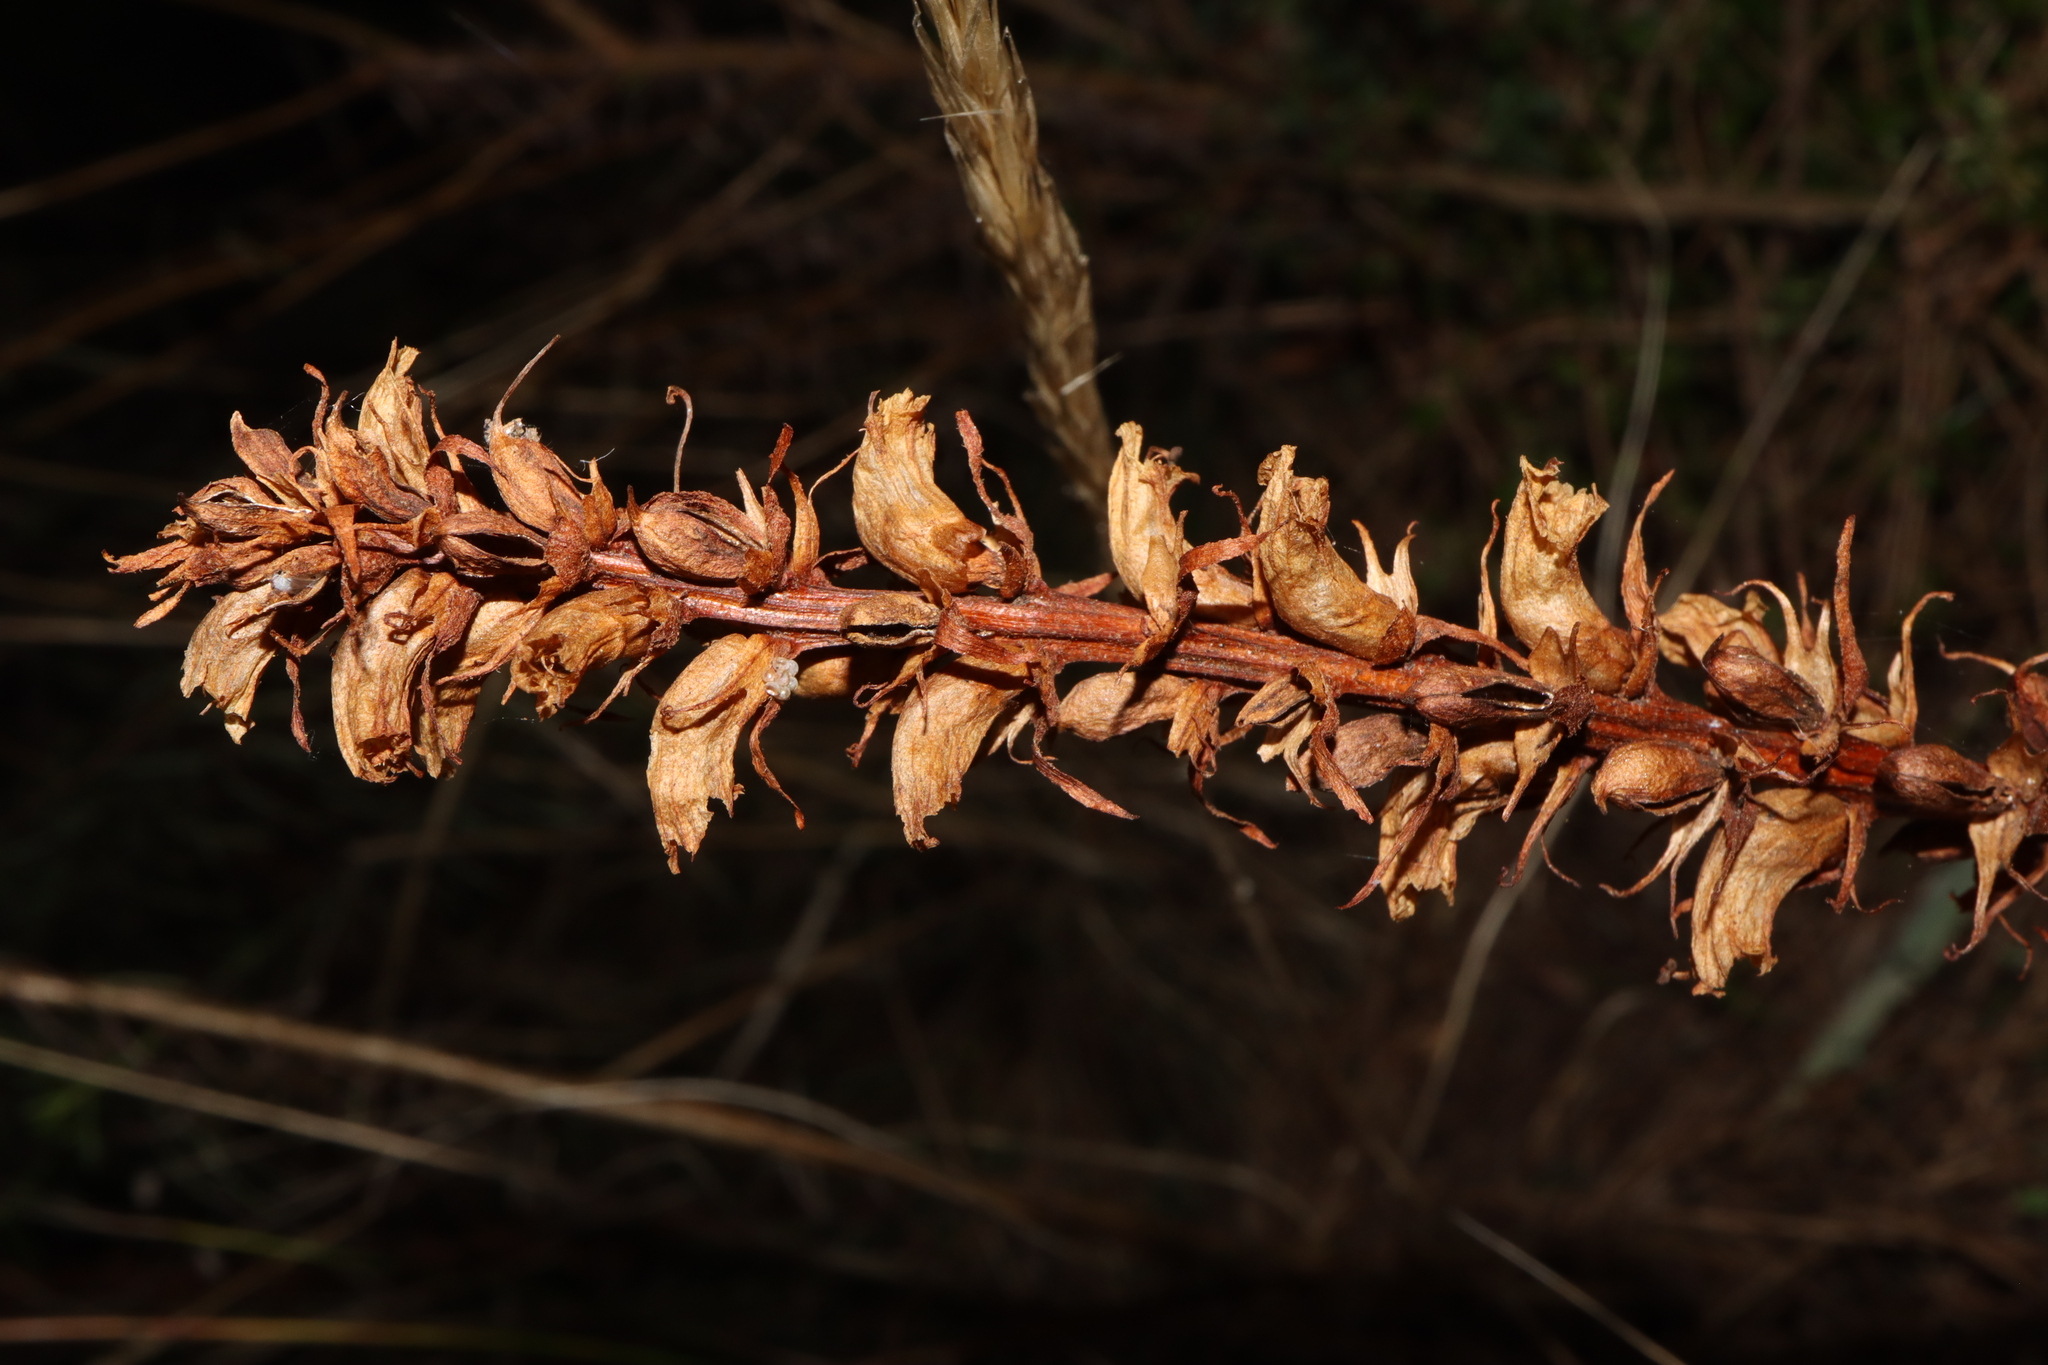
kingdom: Plantae
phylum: Tracheophyta
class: Magnoliopsida
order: Lamiales
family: Orobanchaceae
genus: Orobanche
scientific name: Orobanche minor
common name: Common broomrape
